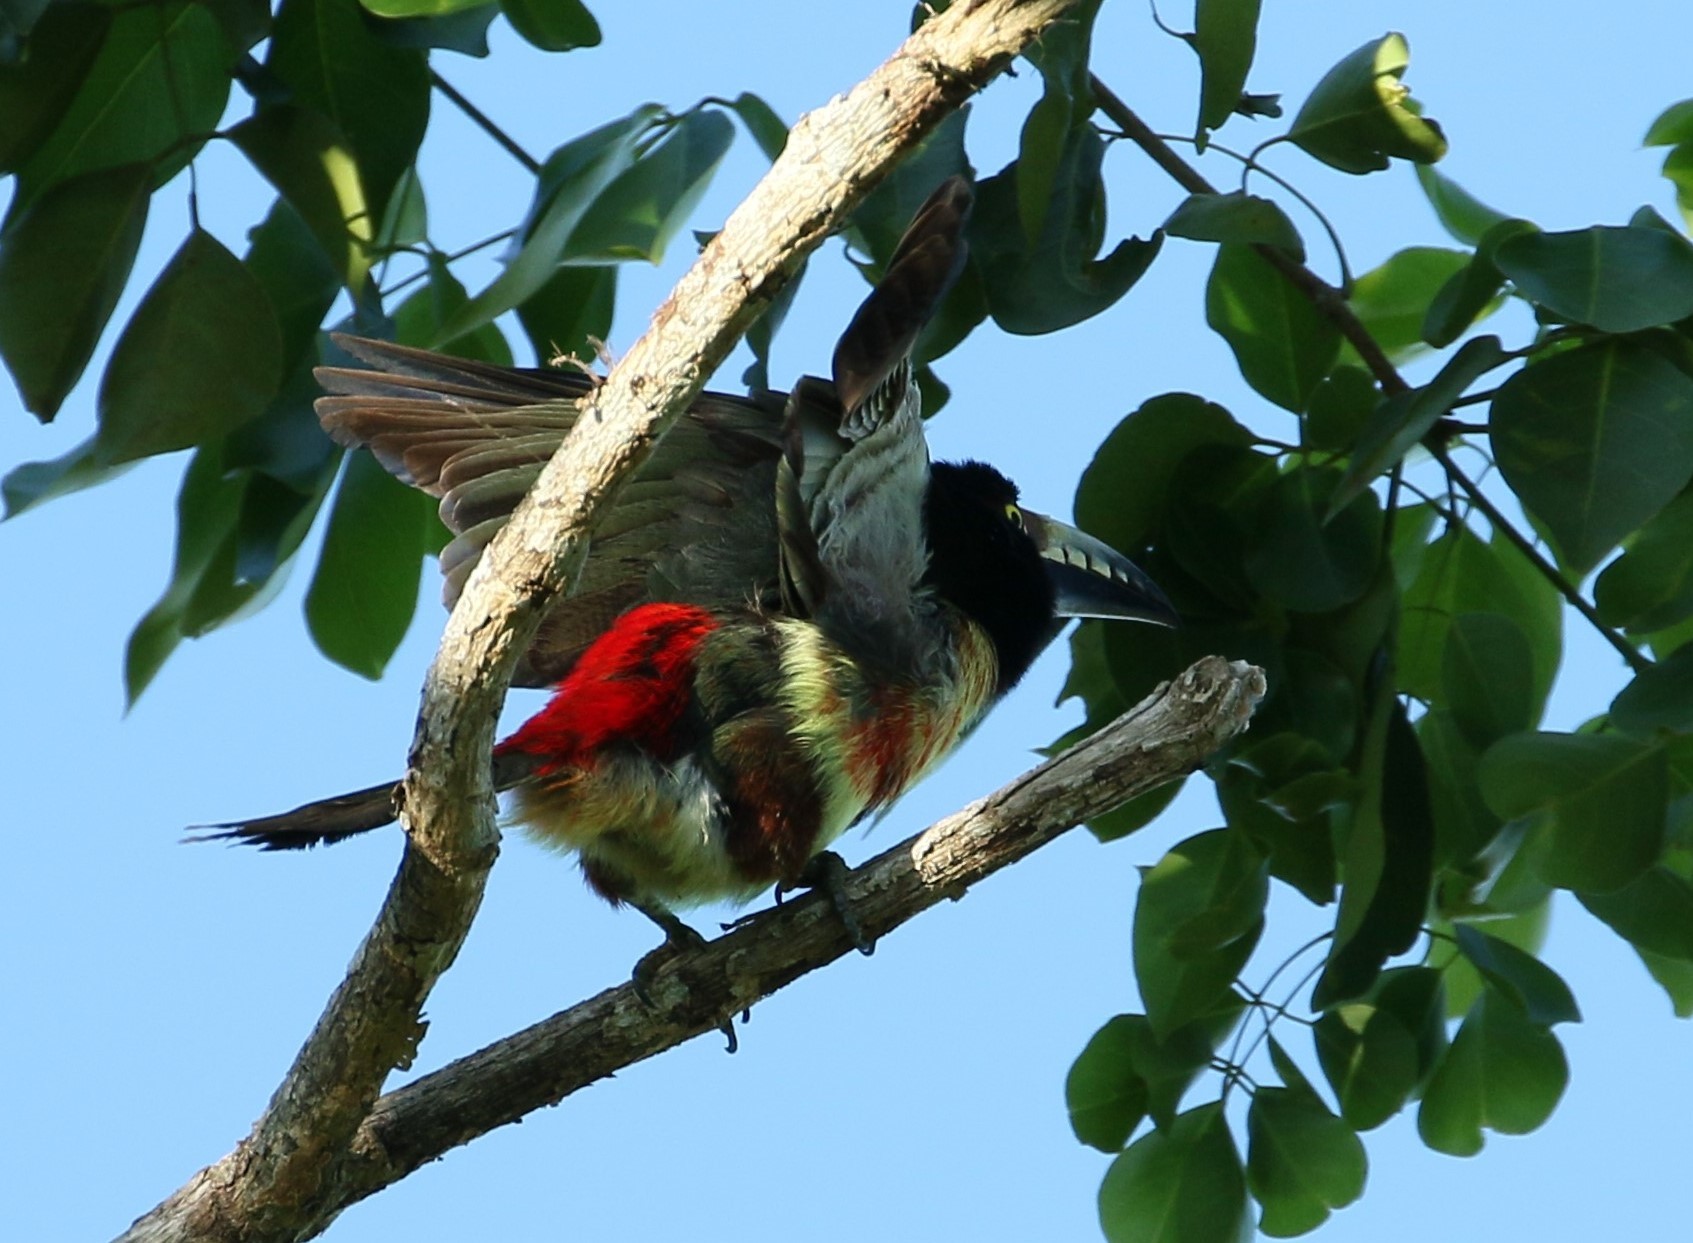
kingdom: Animalia
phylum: Chordata
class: Aves
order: Piciformes
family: Ramphastidae
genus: Pteroglossus
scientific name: Pteroglossus torquatus
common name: Collared aracari
